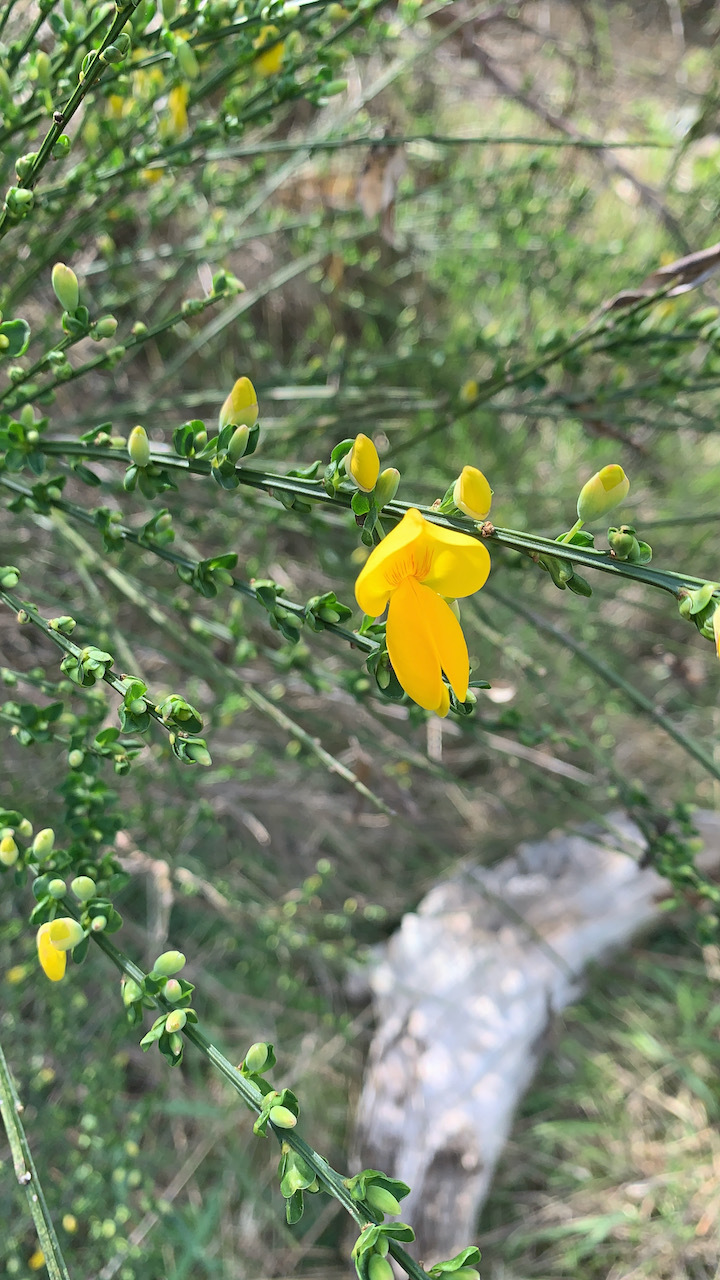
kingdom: Plantae
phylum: Tracheophyta
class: Magnoliopsida
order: Fabales
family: Fabaceae
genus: Cytisus
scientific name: Cytisus scoparius
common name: Scotch broom
